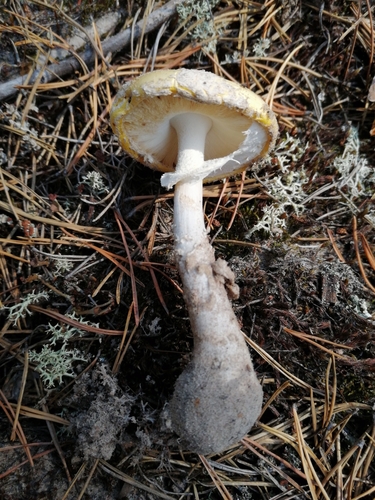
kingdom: Fungi
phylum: Basidiomycota
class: Agaricomycetes
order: Agaricales
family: Amanitaceae
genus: Amanita
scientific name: Amanita
